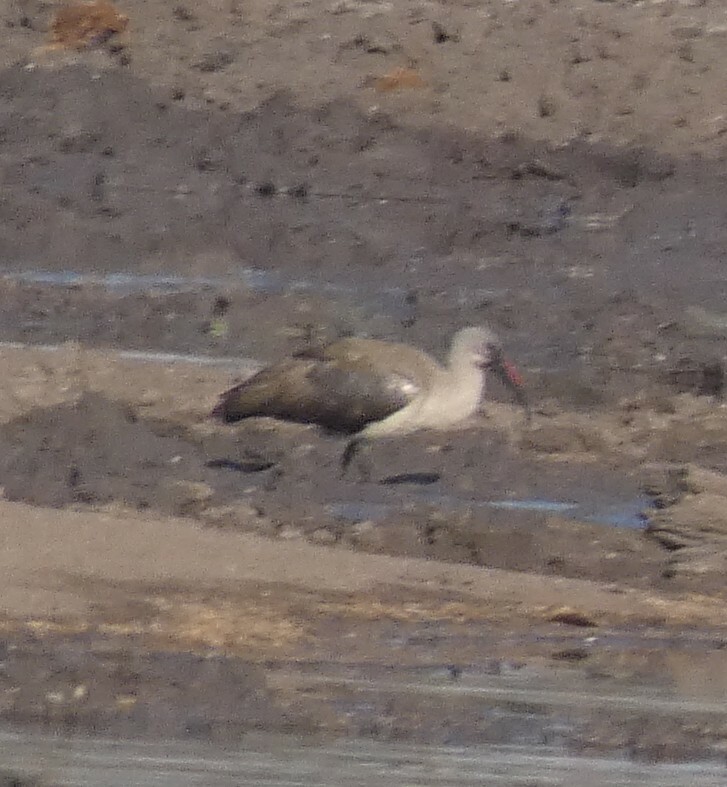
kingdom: Animalia
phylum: Chordata
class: Aves
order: Pelecaniformes
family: Threskiornithidae
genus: Bostrychia
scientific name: Bostrychia hagedash
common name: Hadada ibis
